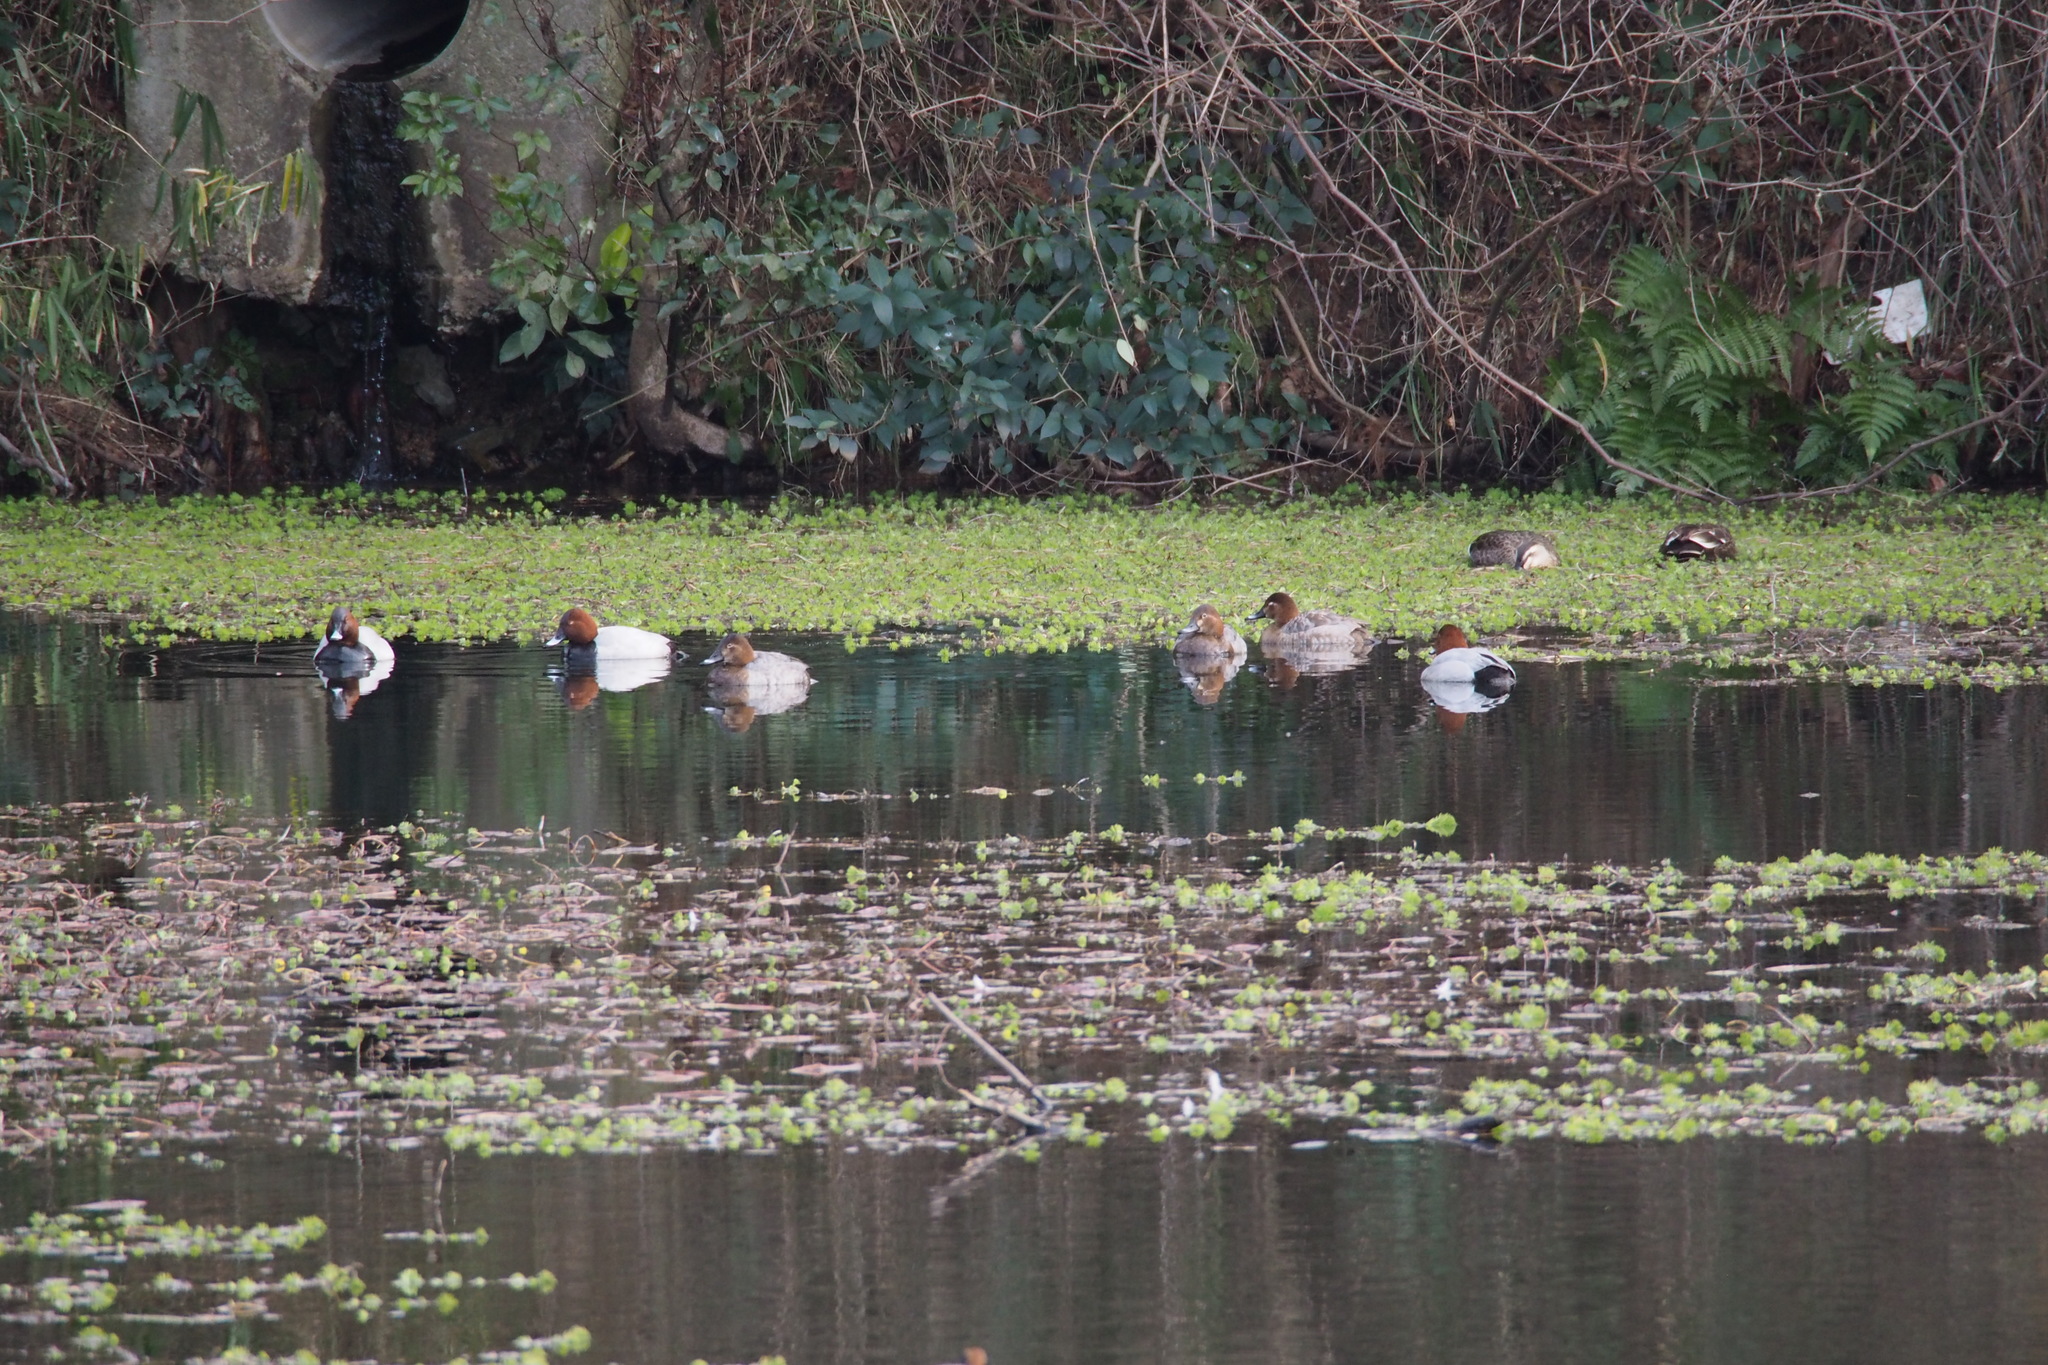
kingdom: Animalia
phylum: Chordata
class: Aves
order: Anseriformes
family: Anatidae
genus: Aythya
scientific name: Aythya ferina
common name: Common pochard
